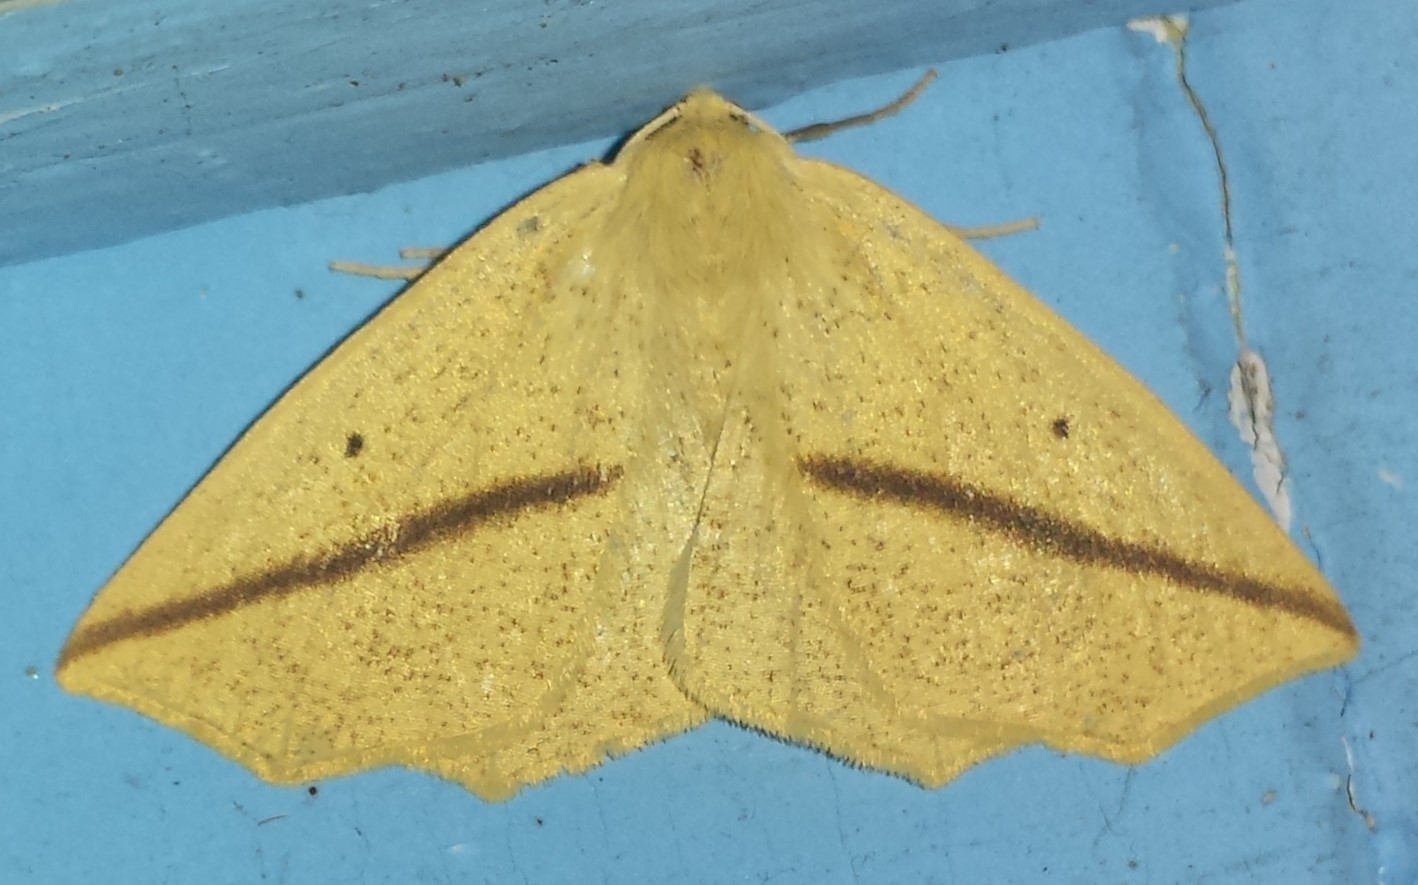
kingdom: Animalia
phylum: Arthropoda
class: Insecta
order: Lepidoptera
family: Geometridae
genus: Tetracis
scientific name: Tetracis crocallata
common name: Yellow slant-line
